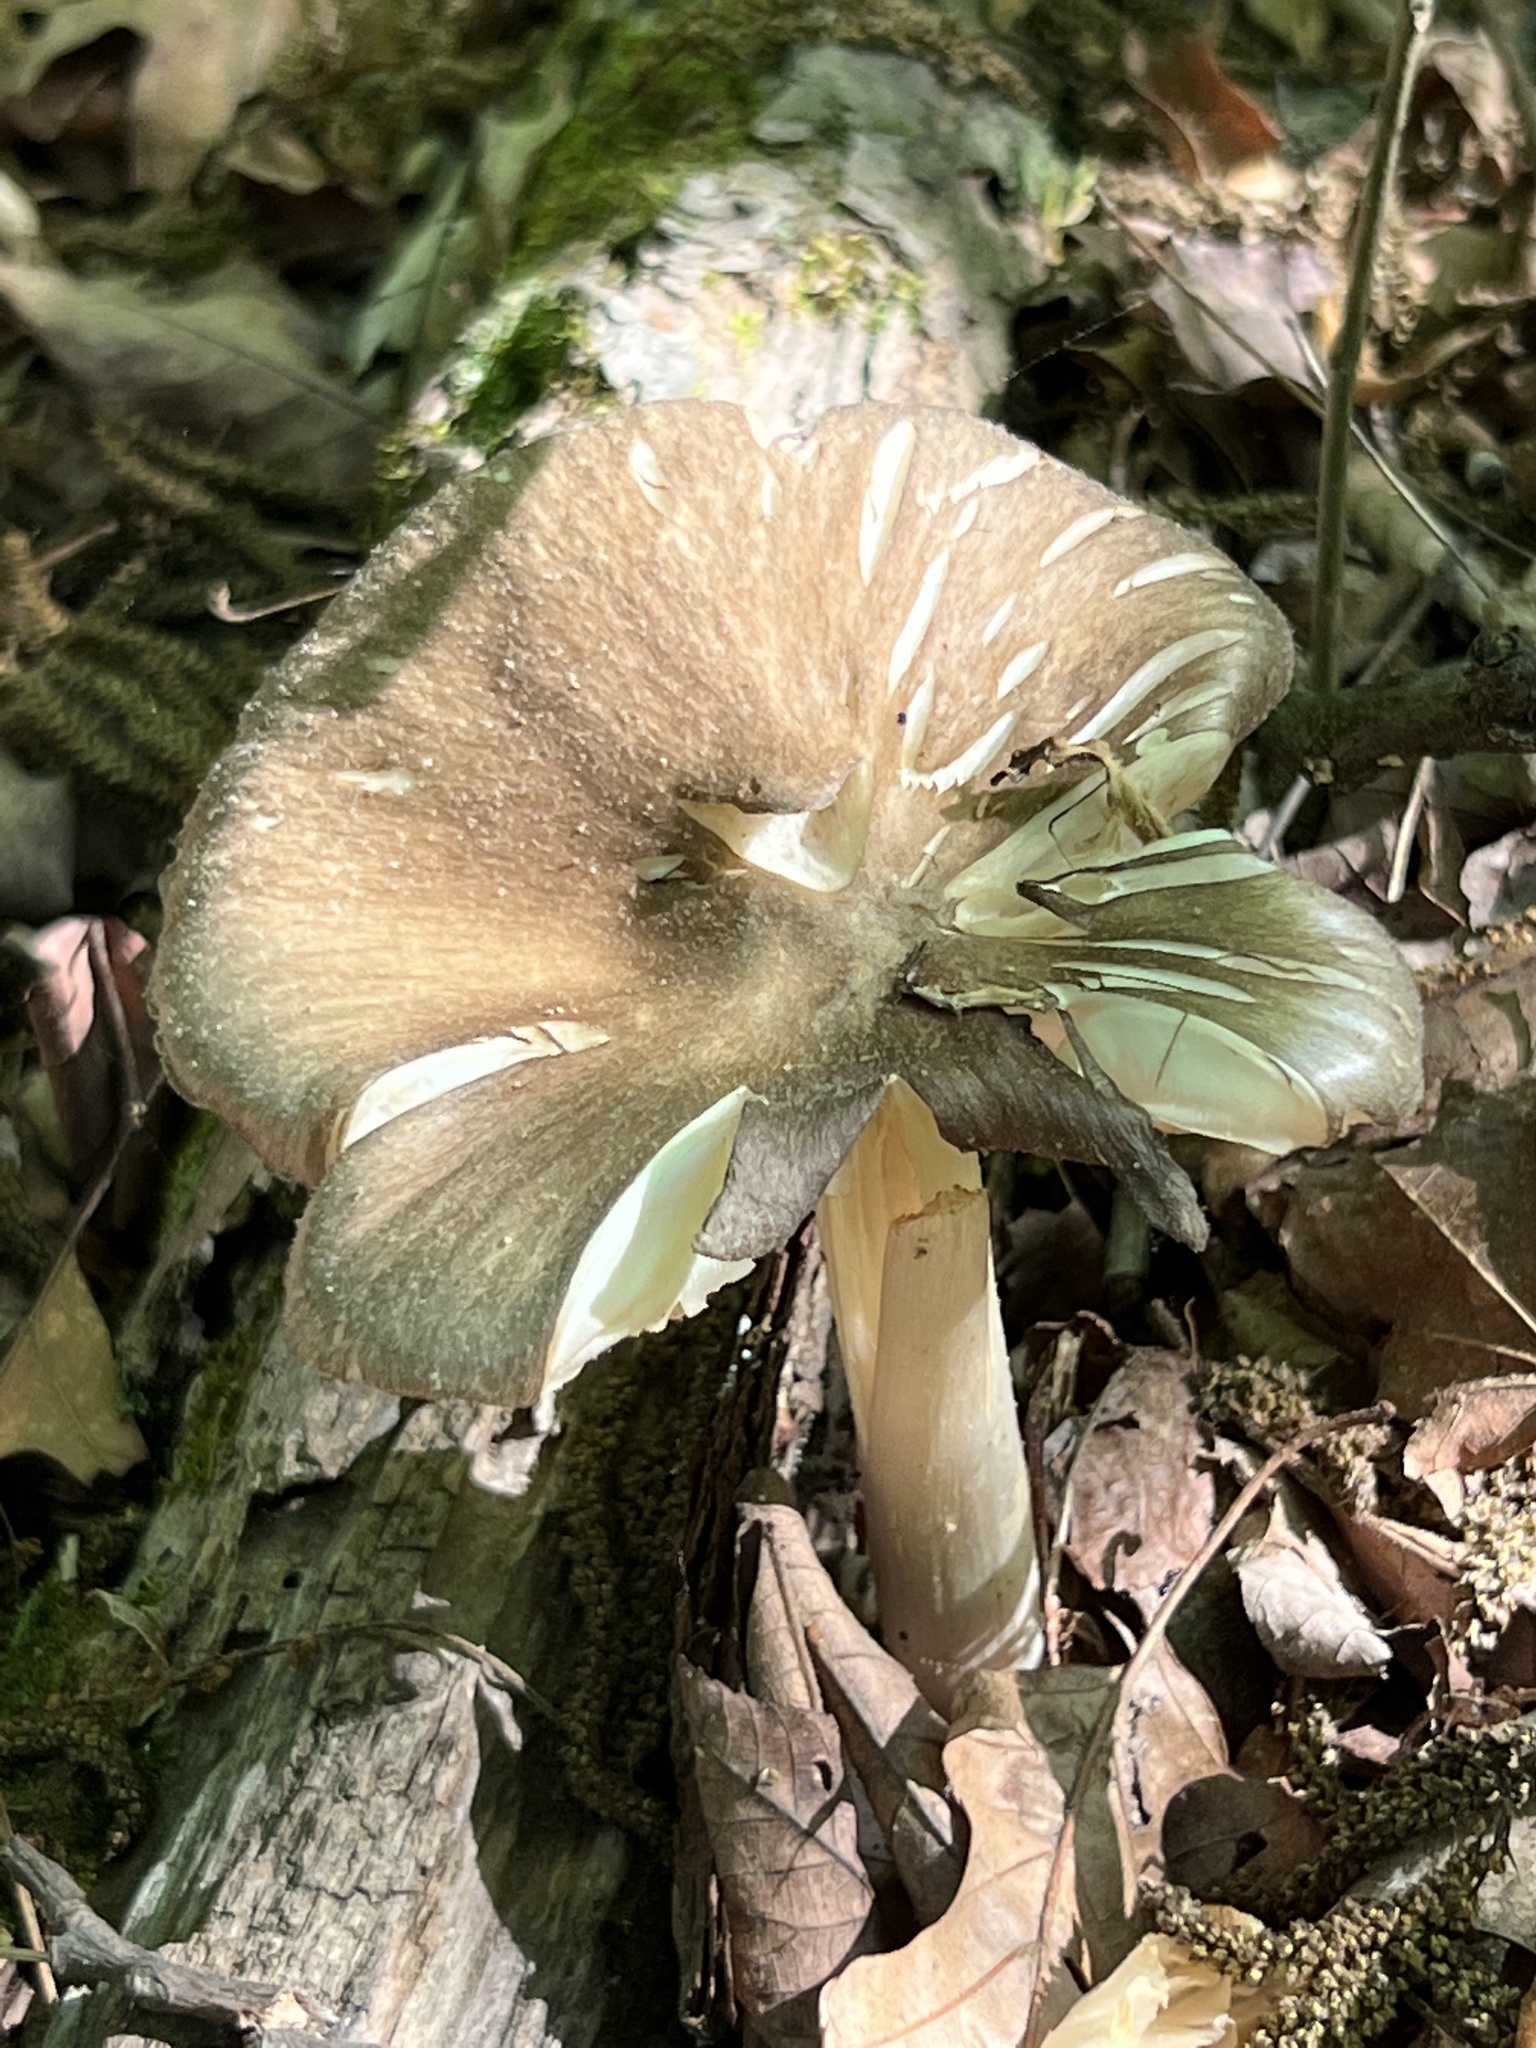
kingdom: Fungi
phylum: Basidiomycota
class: Agaricomycetes
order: Agaricales
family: Tricholomataceae
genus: Megacollybia
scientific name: Megacollybia rodmanii
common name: Eastern american platterful mushroom
